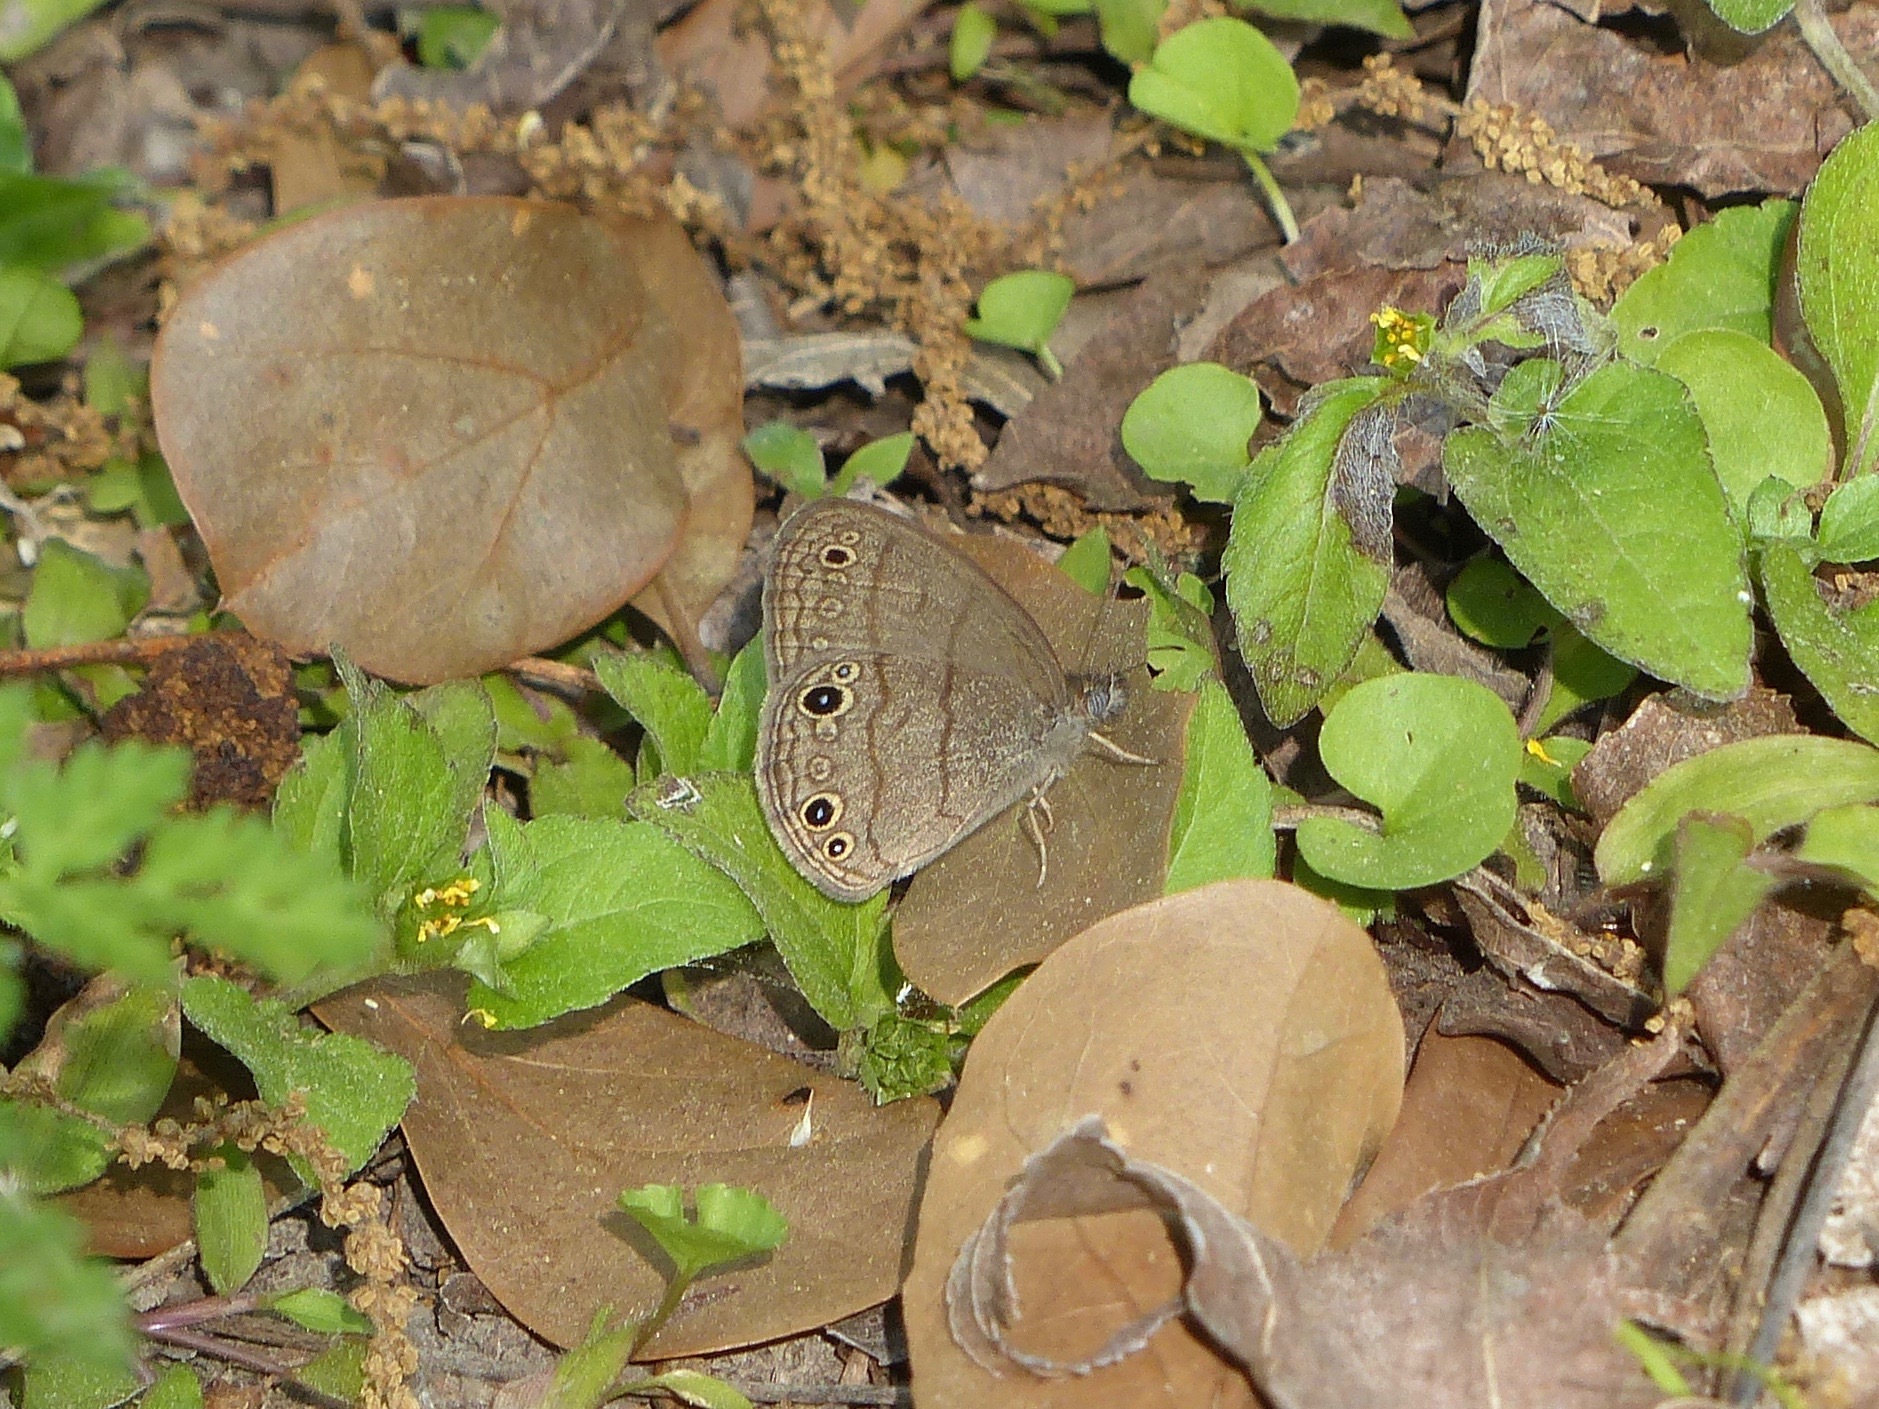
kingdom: Animalia
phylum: Arthropoda
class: Insecta
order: Lepidoptera
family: Nymphalidae
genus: Hermeuptychia
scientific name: Hermeuptychia hermes
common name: Hermes satyr
